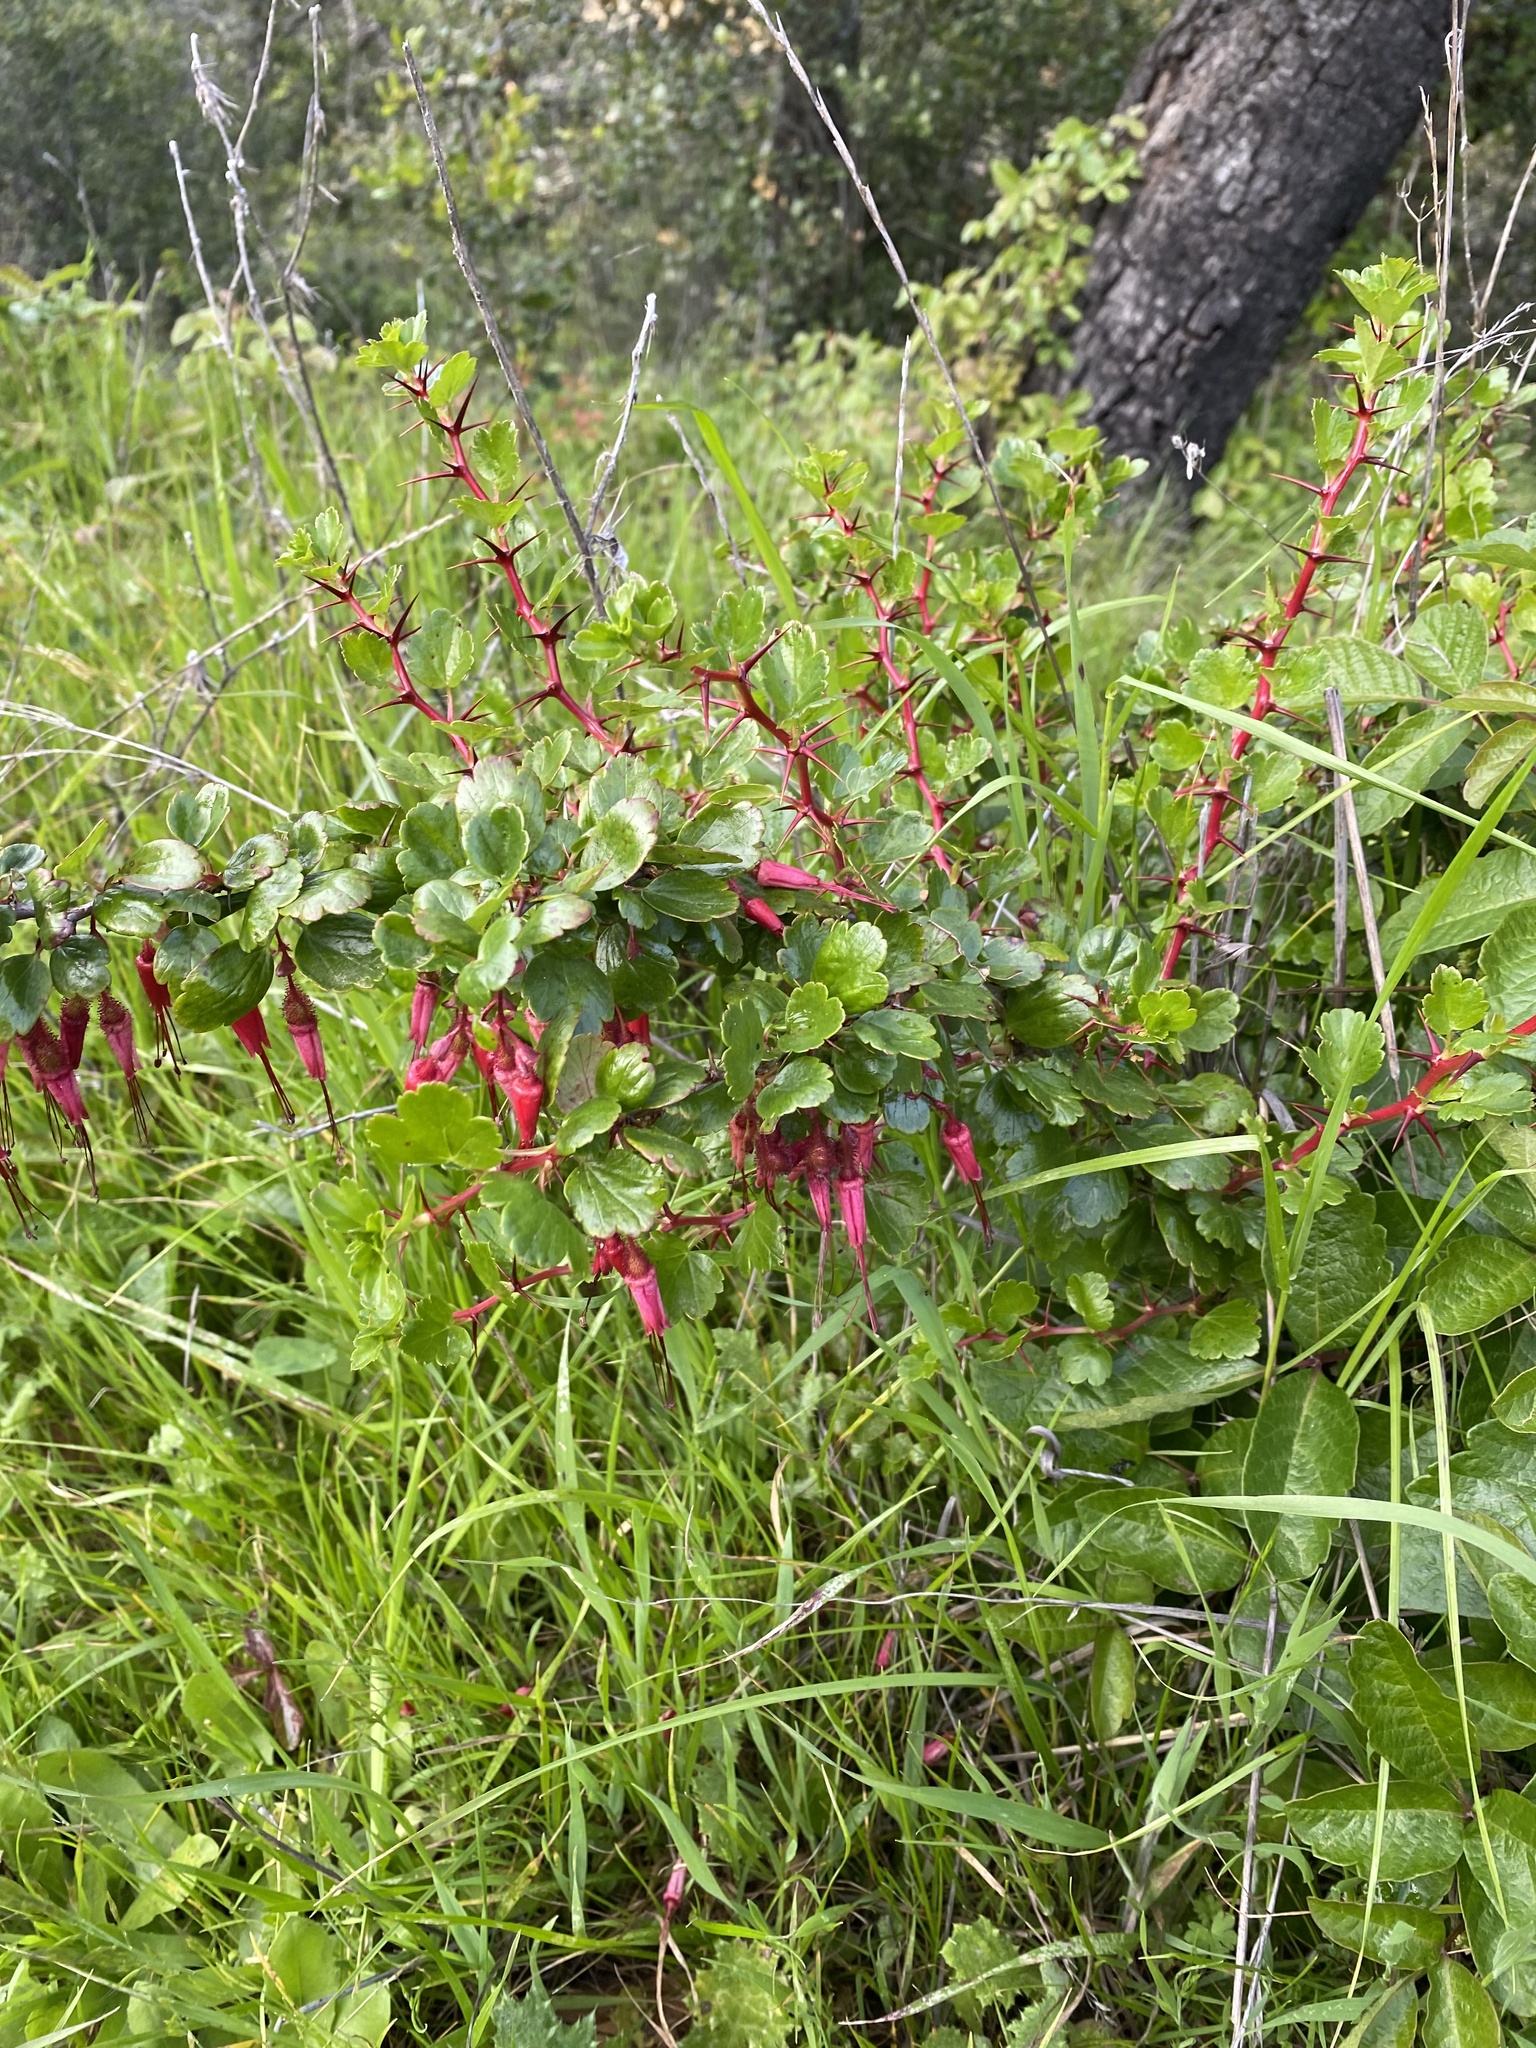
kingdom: Plantae
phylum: Tracheophyta
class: Magnoliopsida
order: Saxifragales
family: Grossulariaceae
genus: Ribes
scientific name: Ribes speciosum
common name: Fuchsia-flower gooseberry
